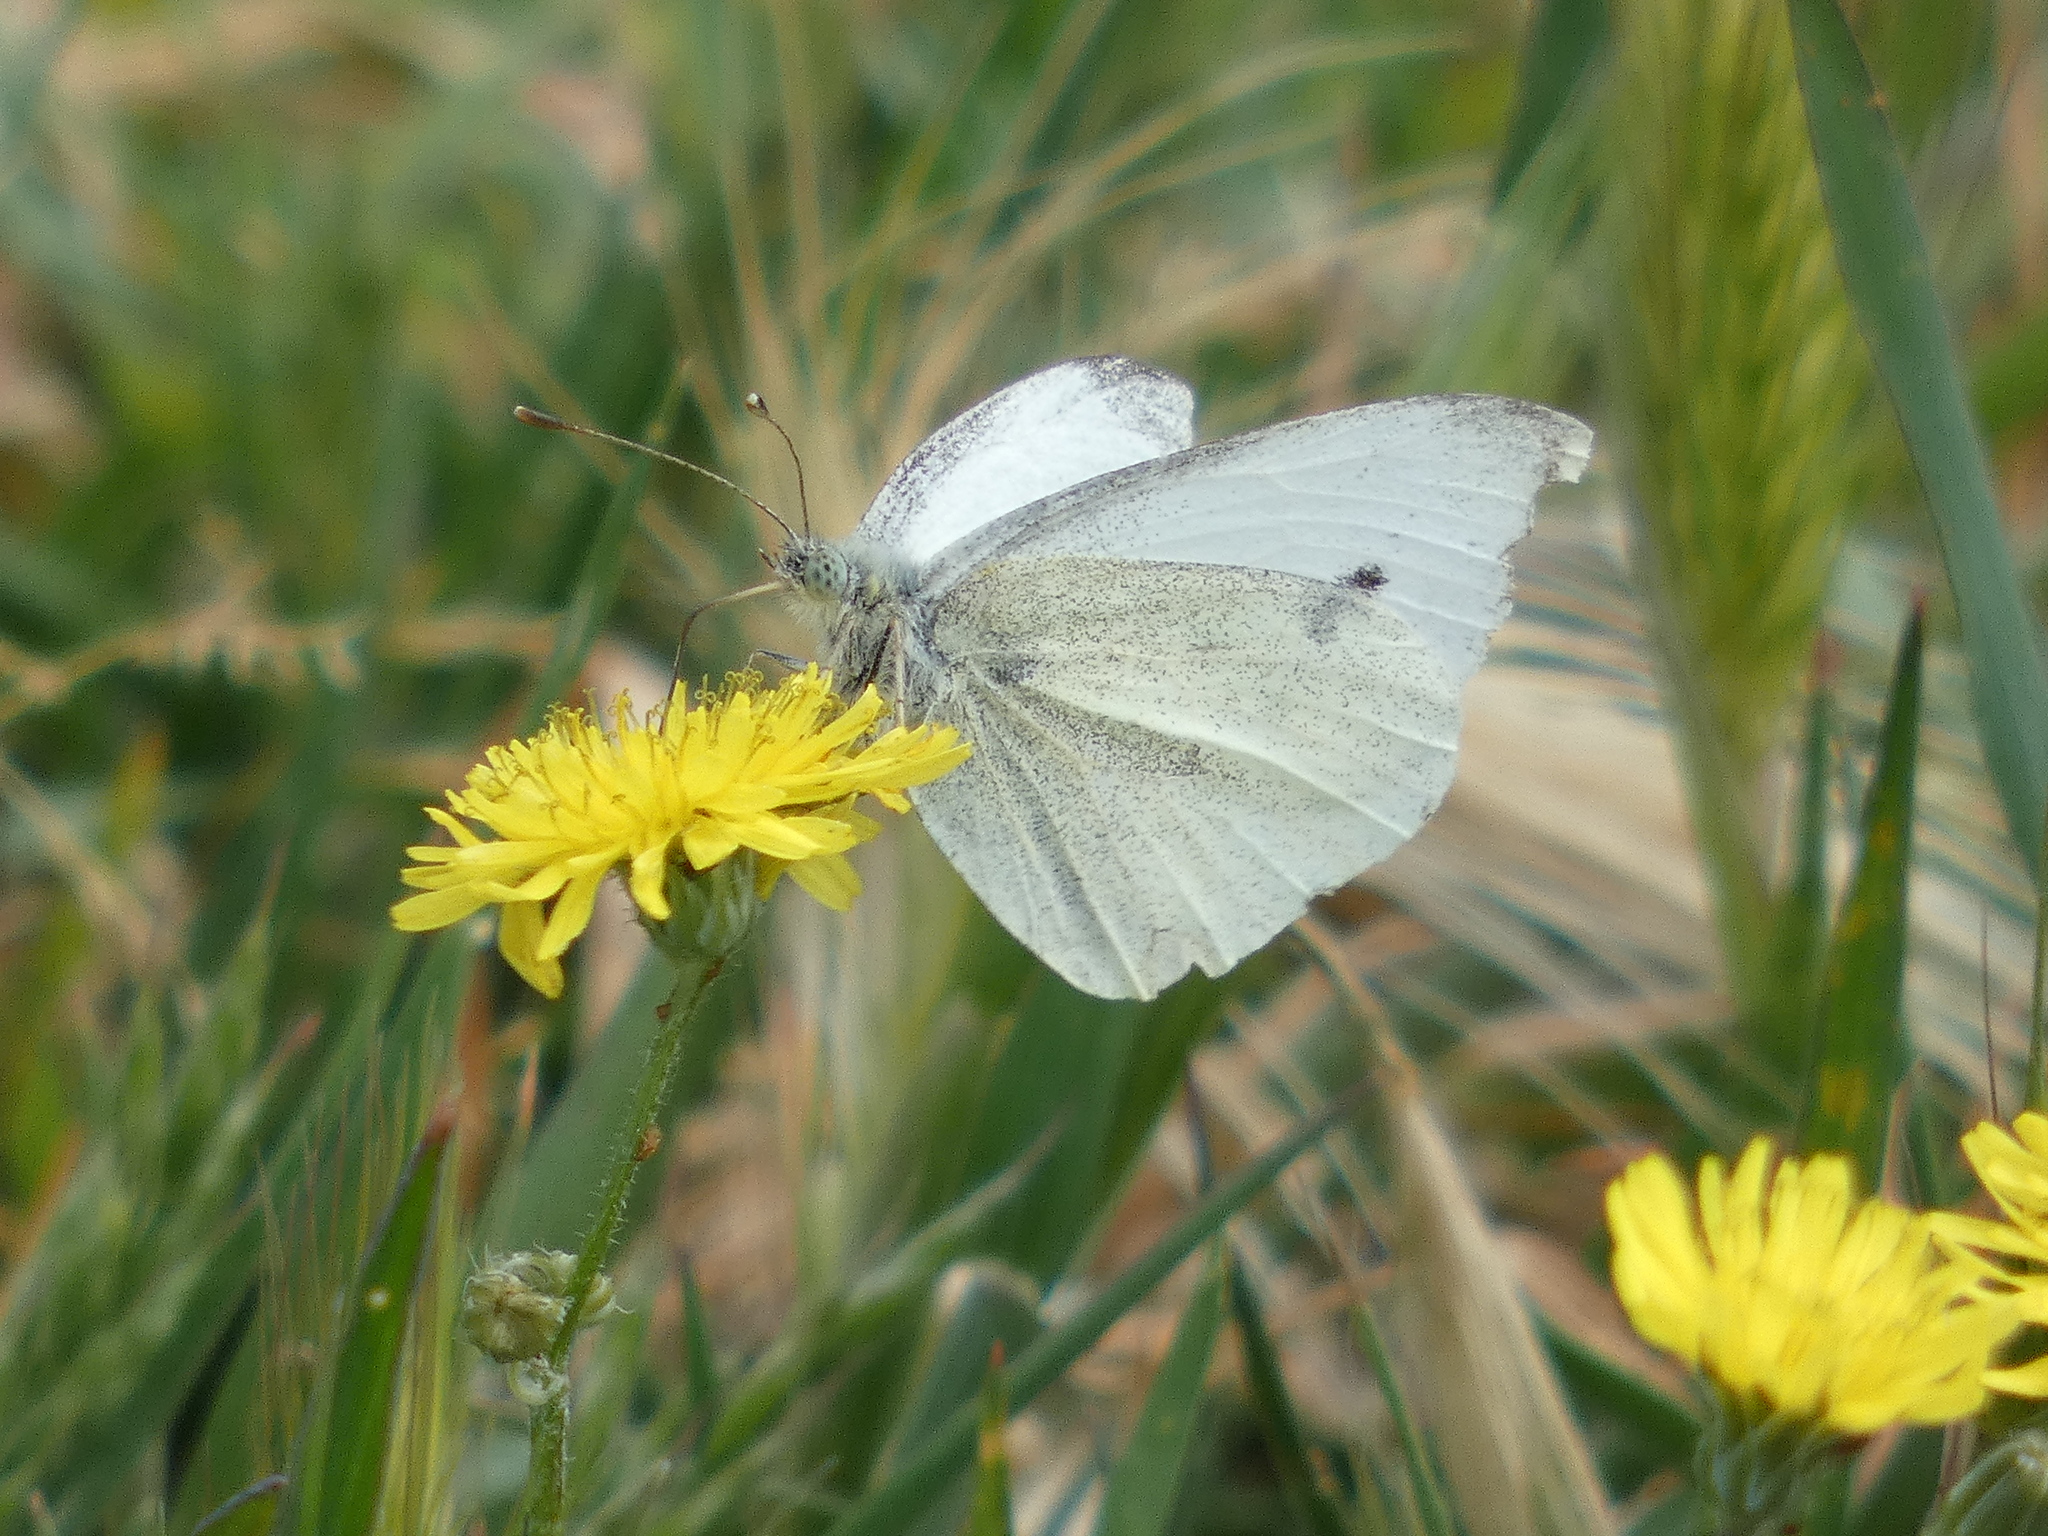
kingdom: Animalia
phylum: Arthropoda
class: Insecta
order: Lepidoptera
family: Pieridae
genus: Pieris
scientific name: Pieris rapae
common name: Small white
